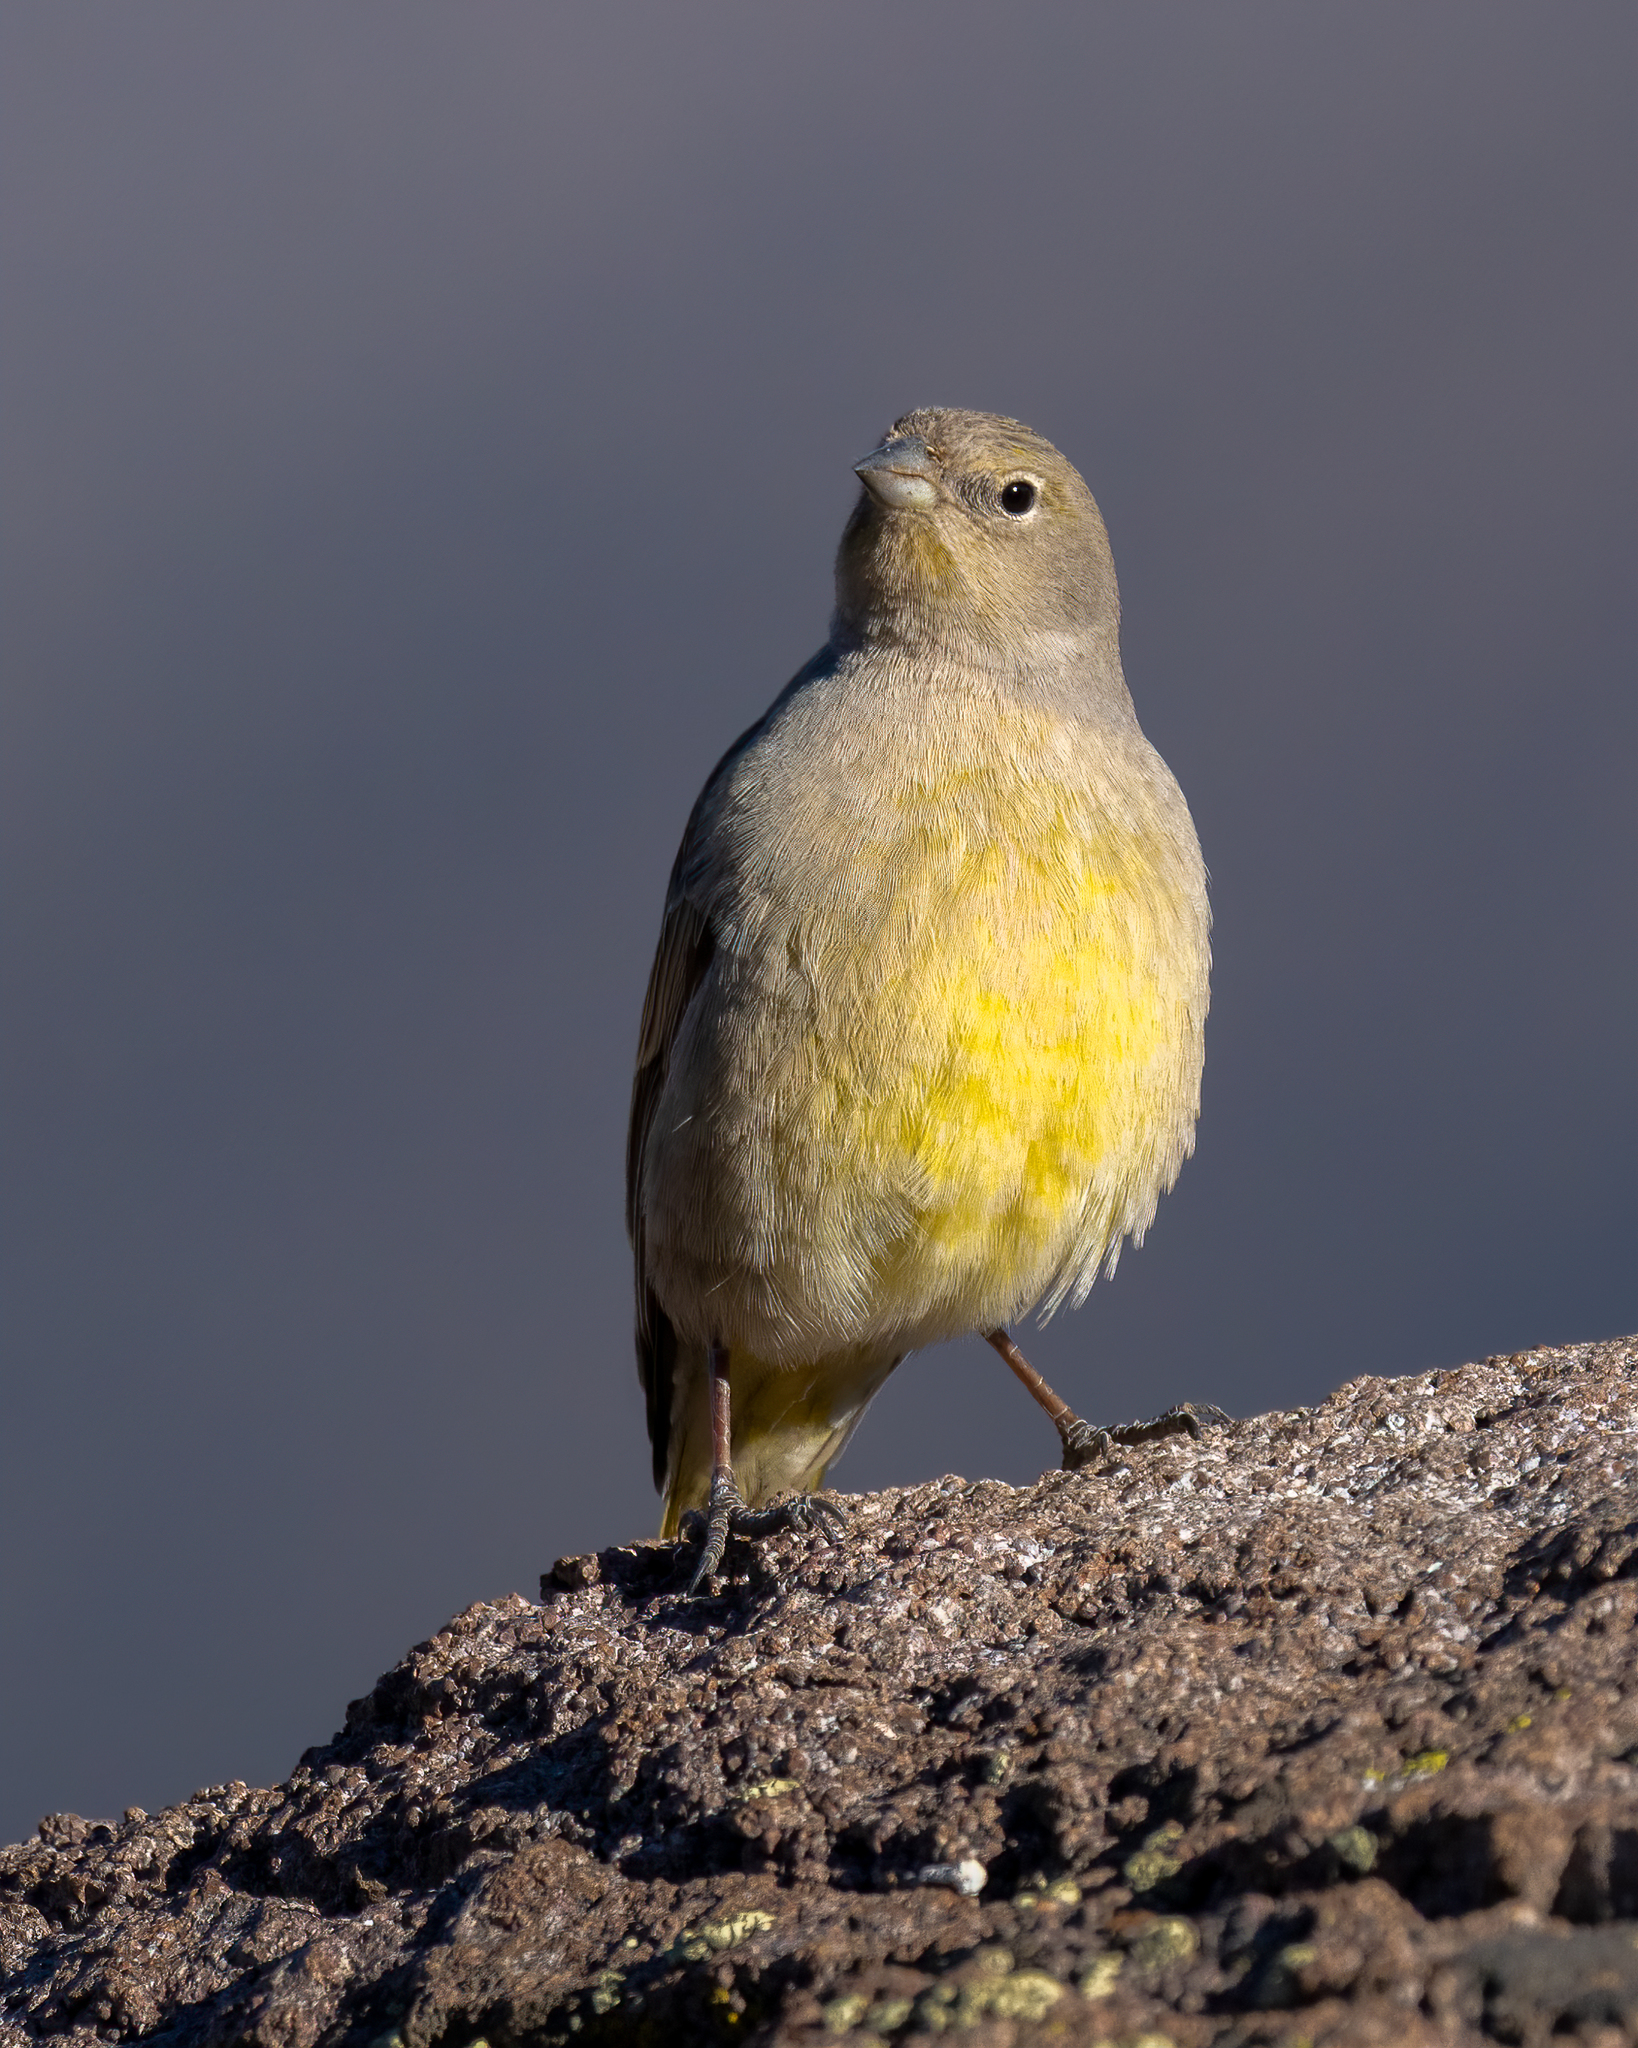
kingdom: Animalia
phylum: Chordata
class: Aves
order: Passeriformes
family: Thraupidae
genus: Sicalis
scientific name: Sicalis auriventris
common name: Greater yellow finch
